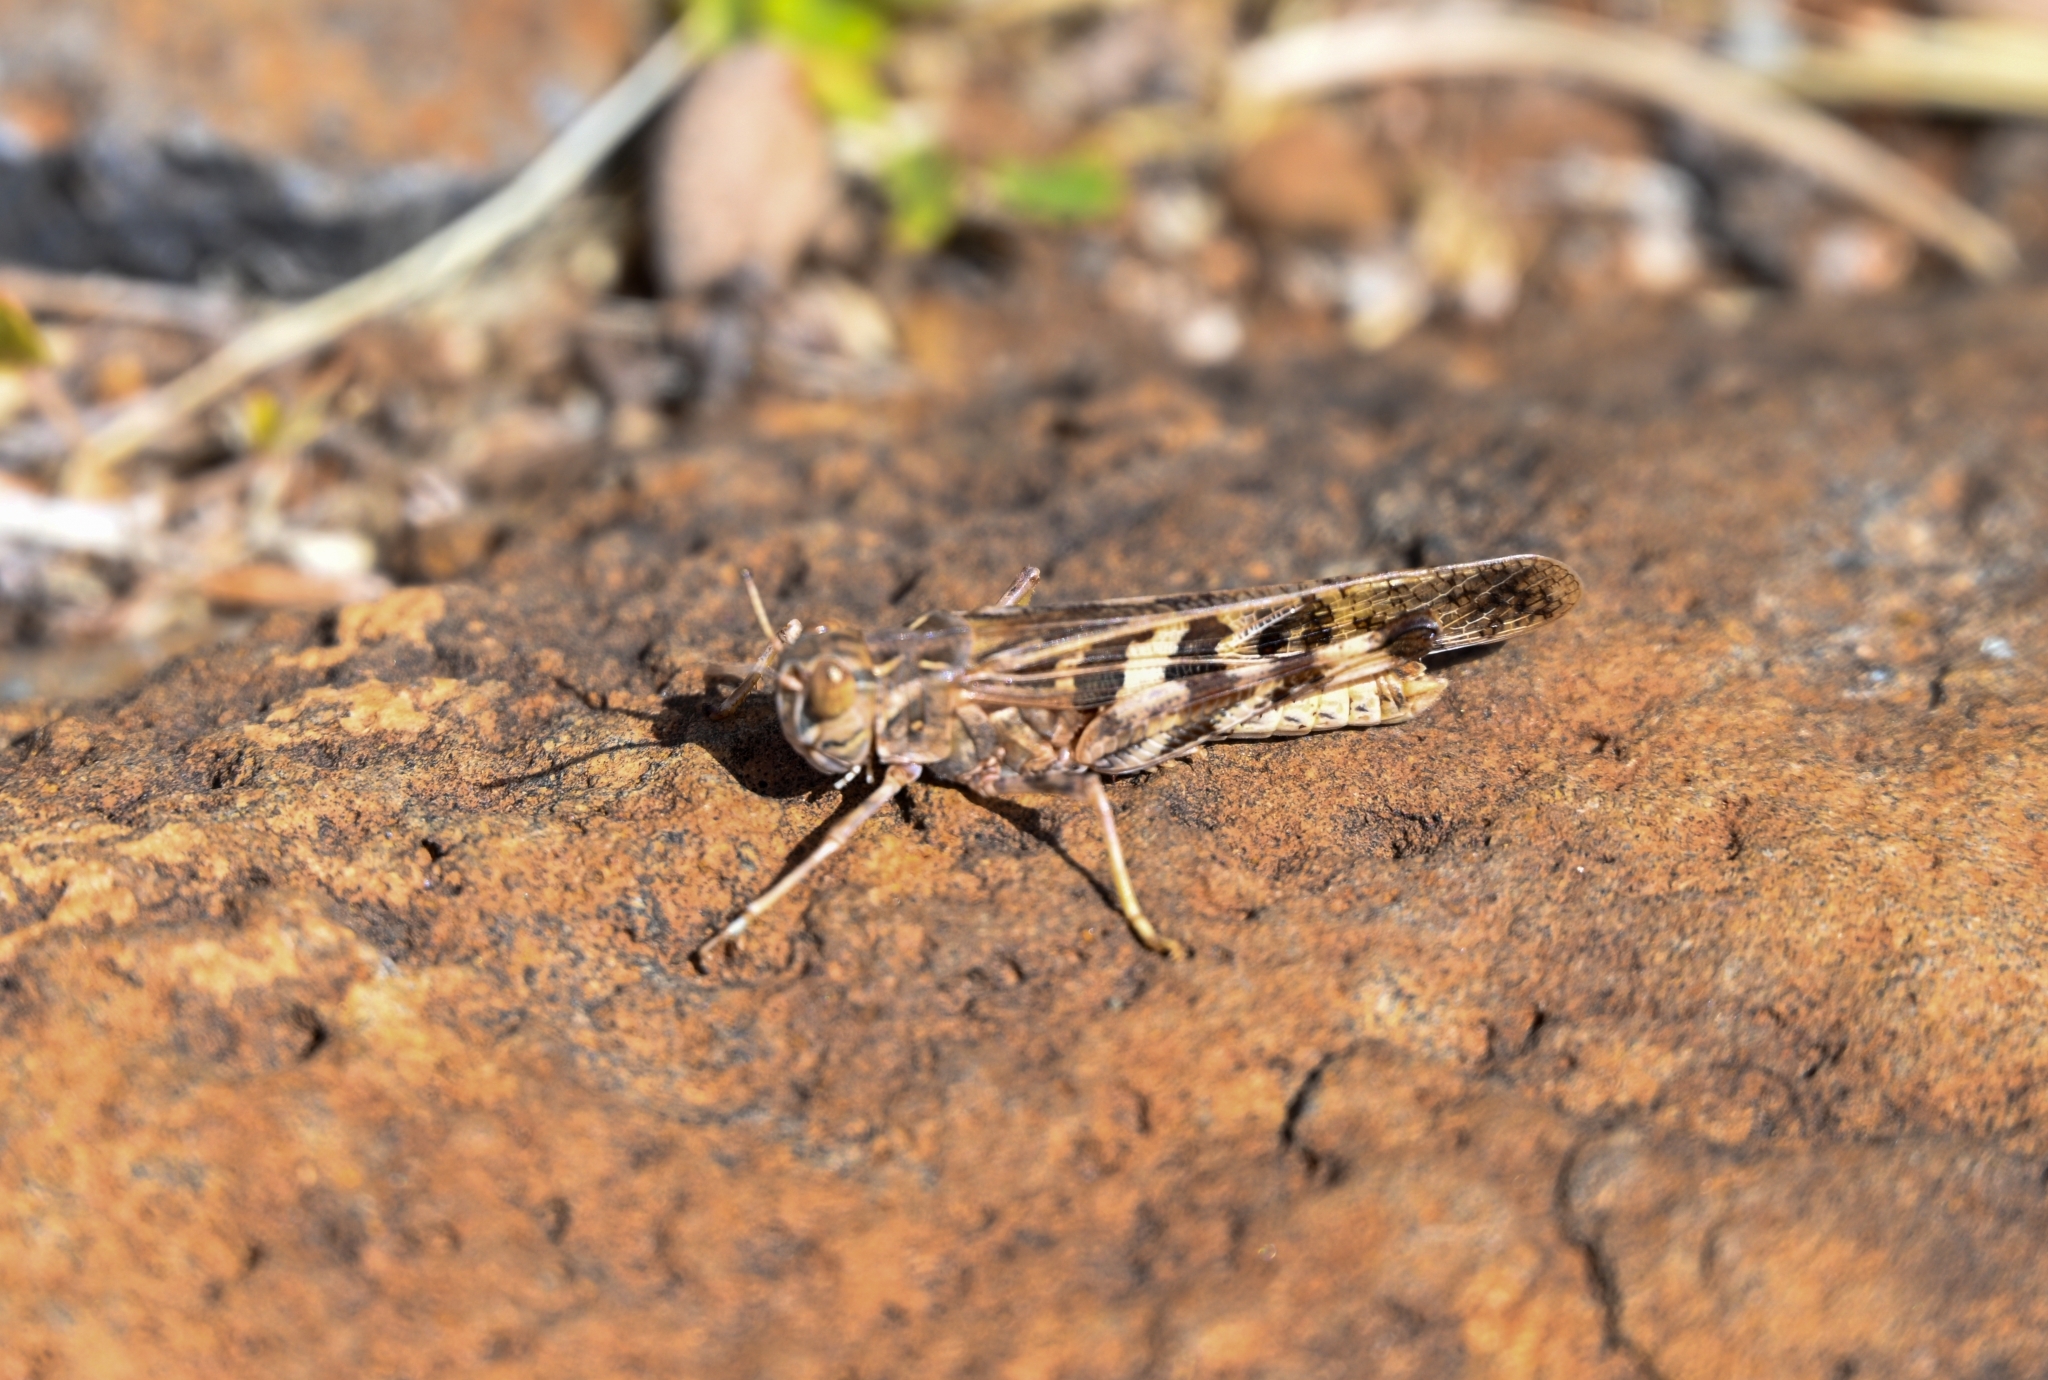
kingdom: Animalia
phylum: Arthropoda
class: Insecta
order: Orthoptera
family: Acrididae
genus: Oedaleus
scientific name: Oedaleus senegalensis
